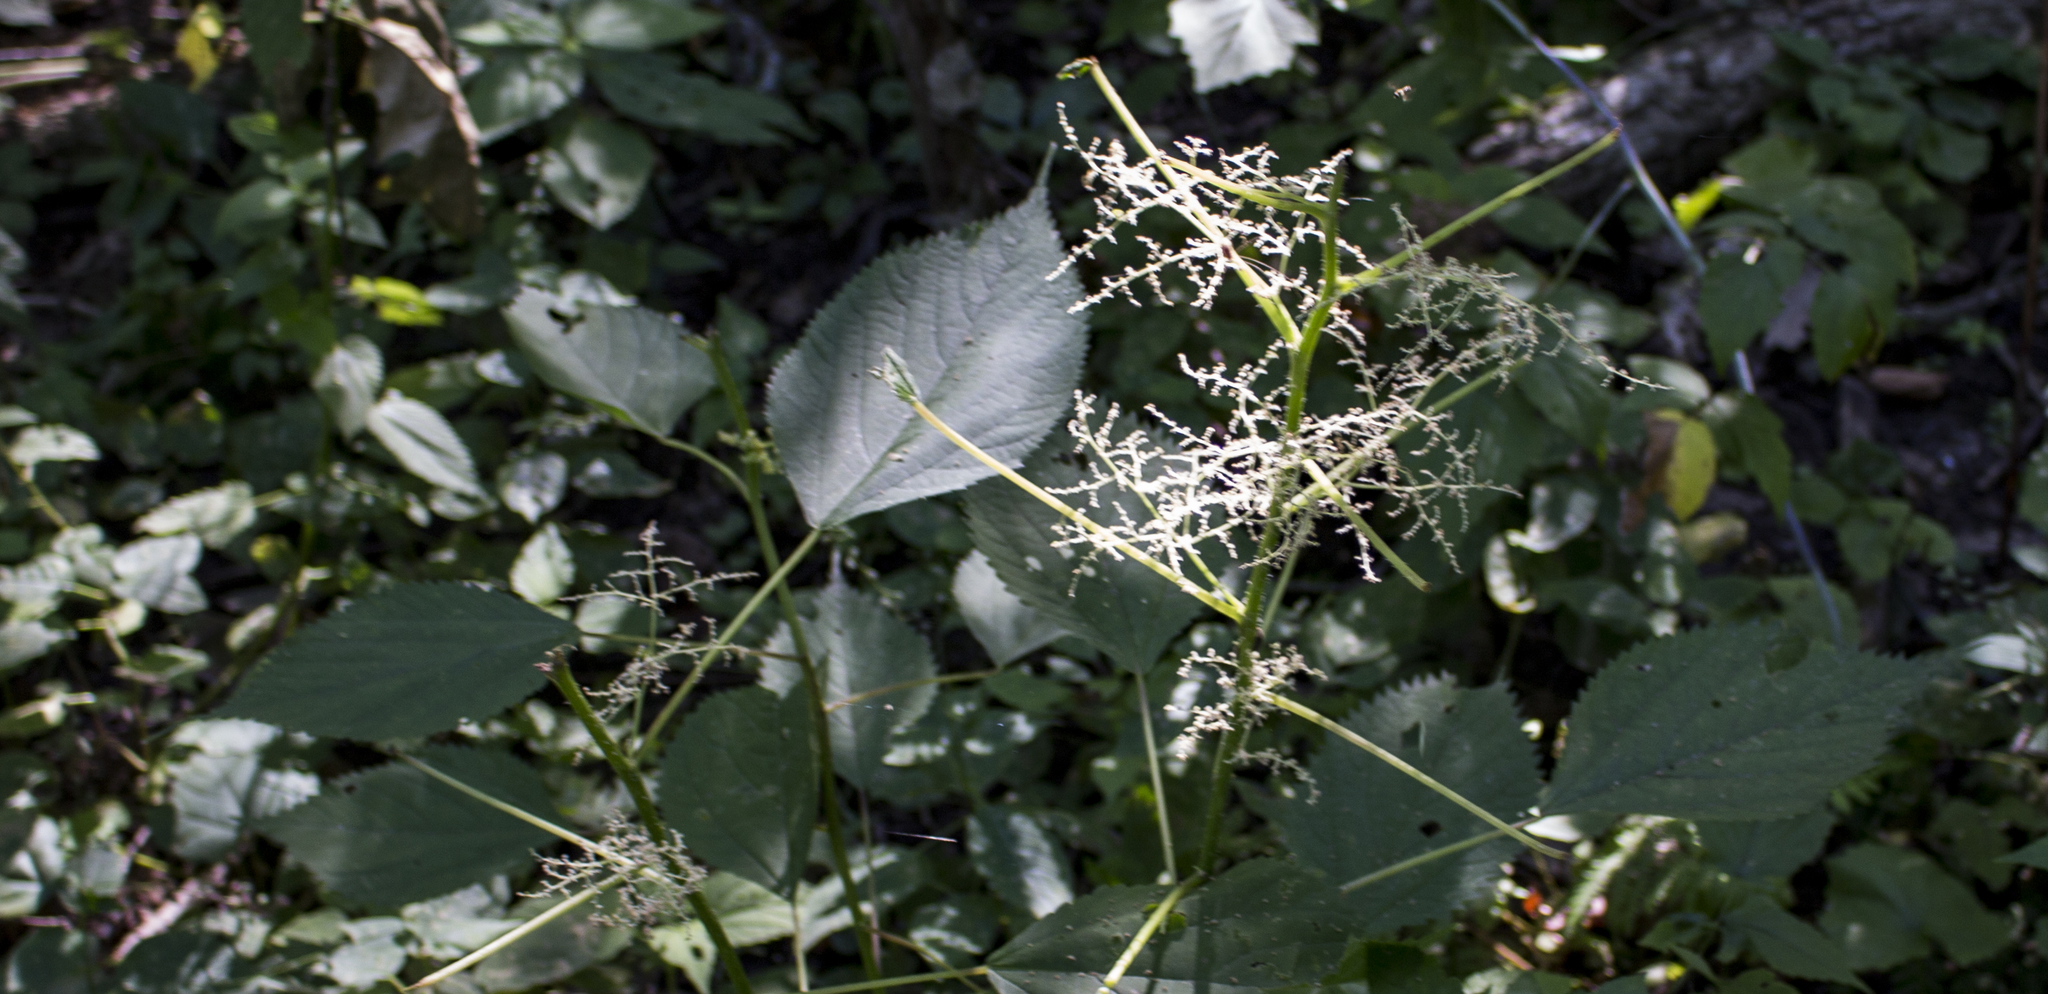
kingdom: Plantae
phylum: Tracheophyta
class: Magnoliopsida
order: Rosales
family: Urticaceae
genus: Laportea
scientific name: Laportea canadensis
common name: Canada nettle
